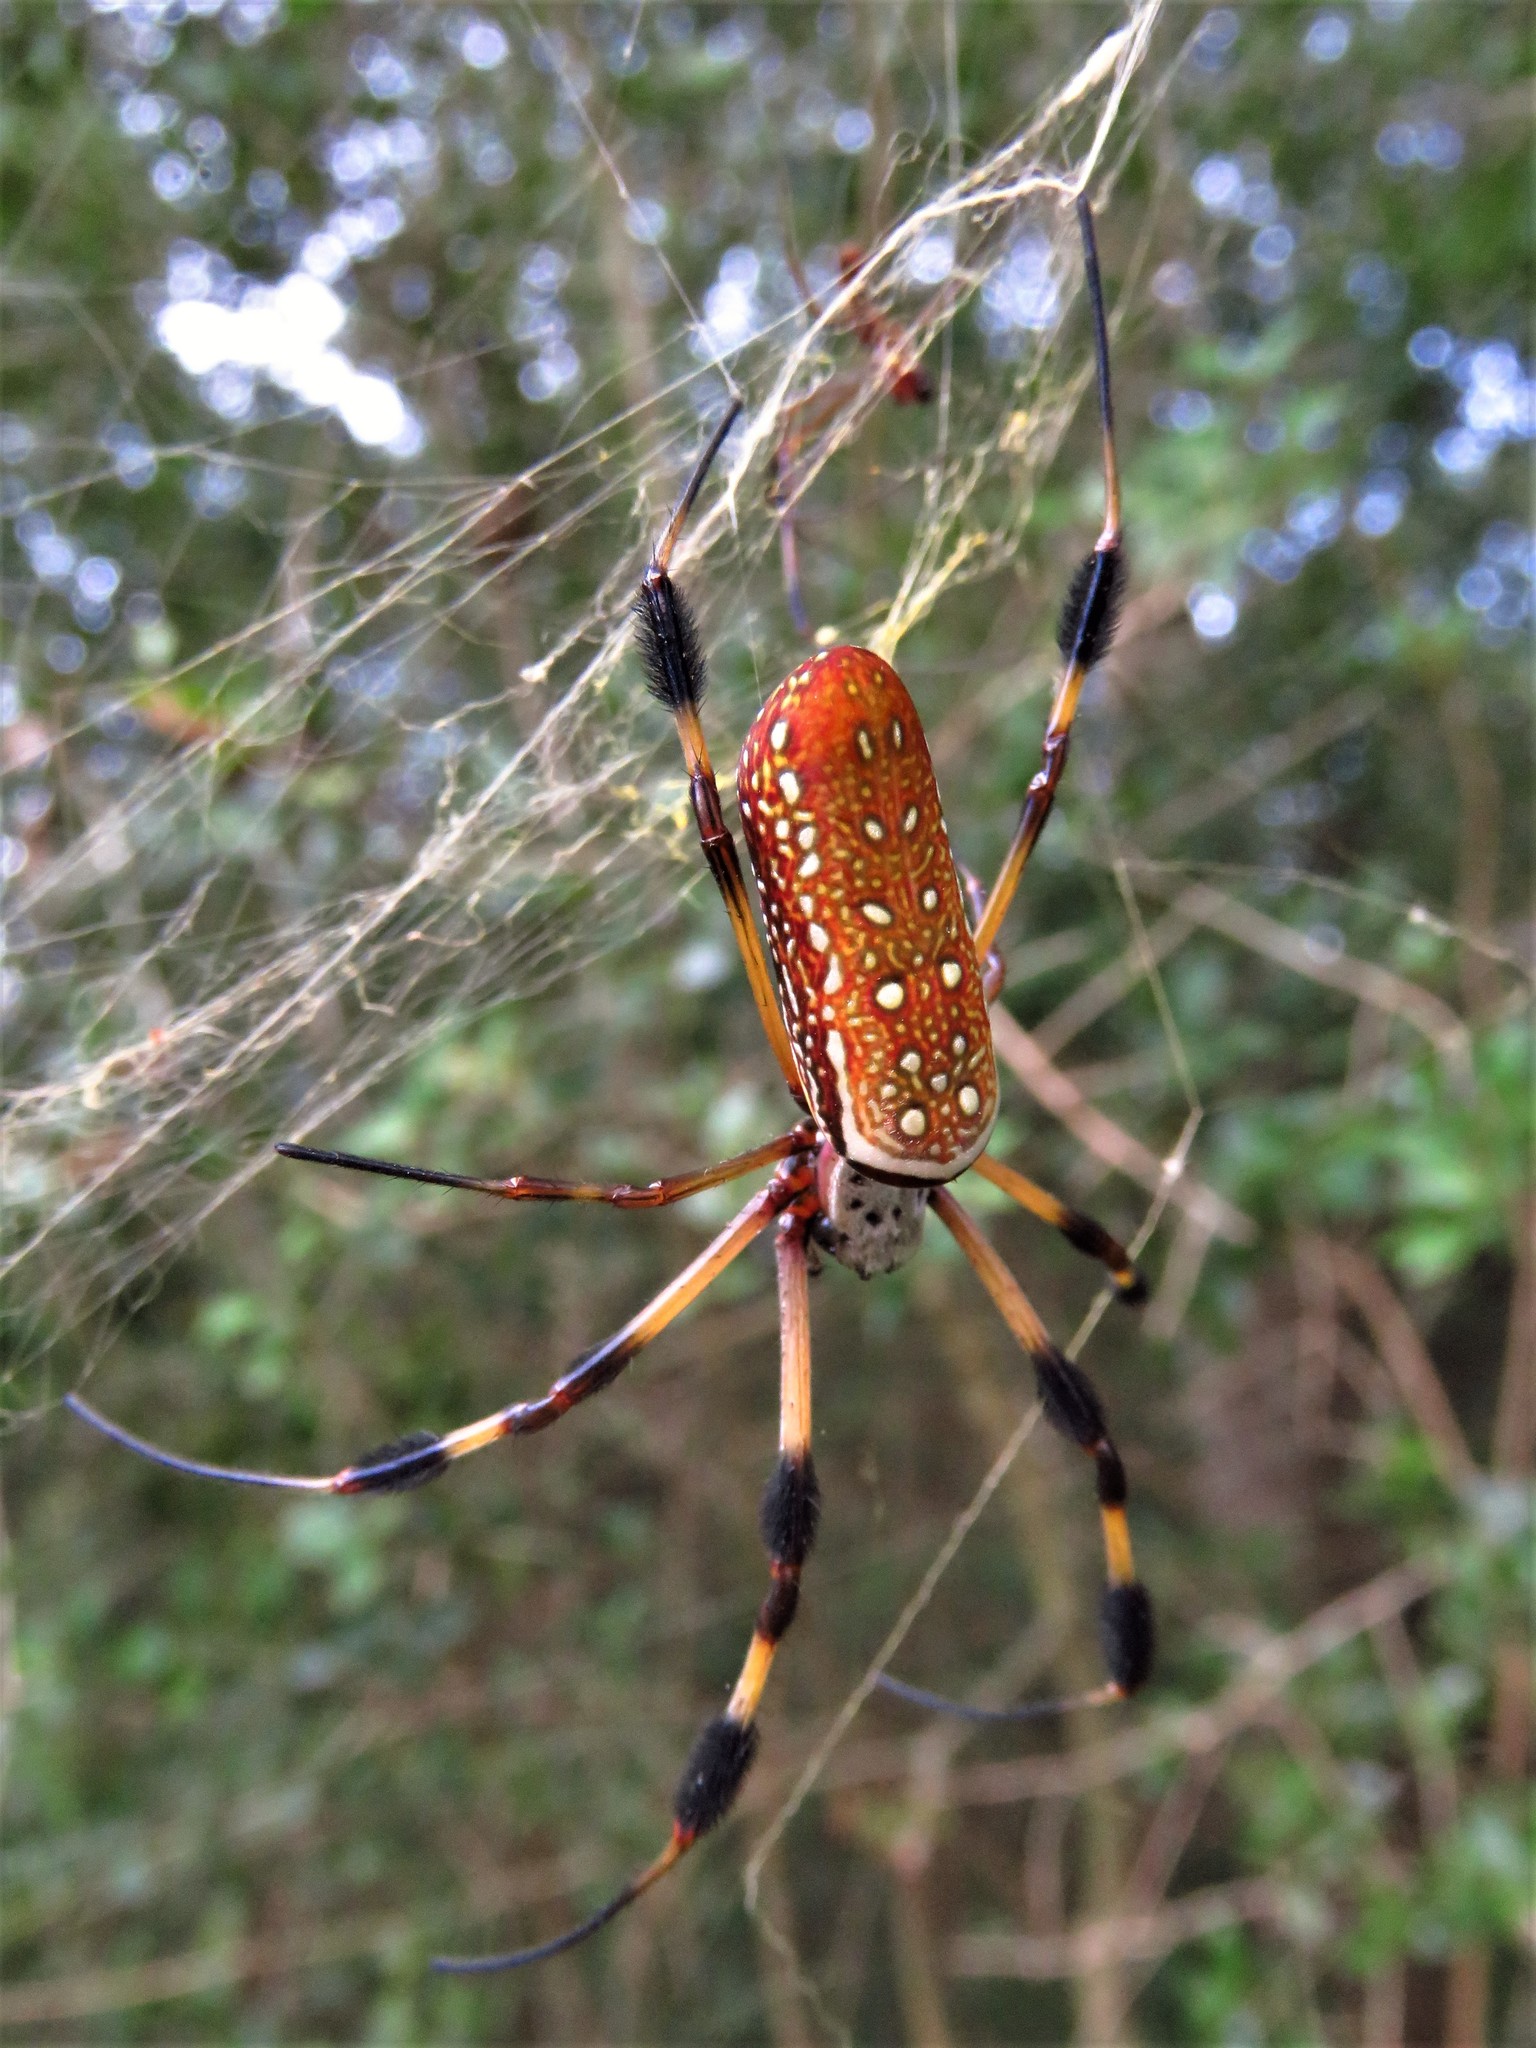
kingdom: Animalia
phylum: Arthropoda
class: Arachnida
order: Araneae
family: Araneidae
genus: Trichonephila
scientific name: Trichonephila clavipes
